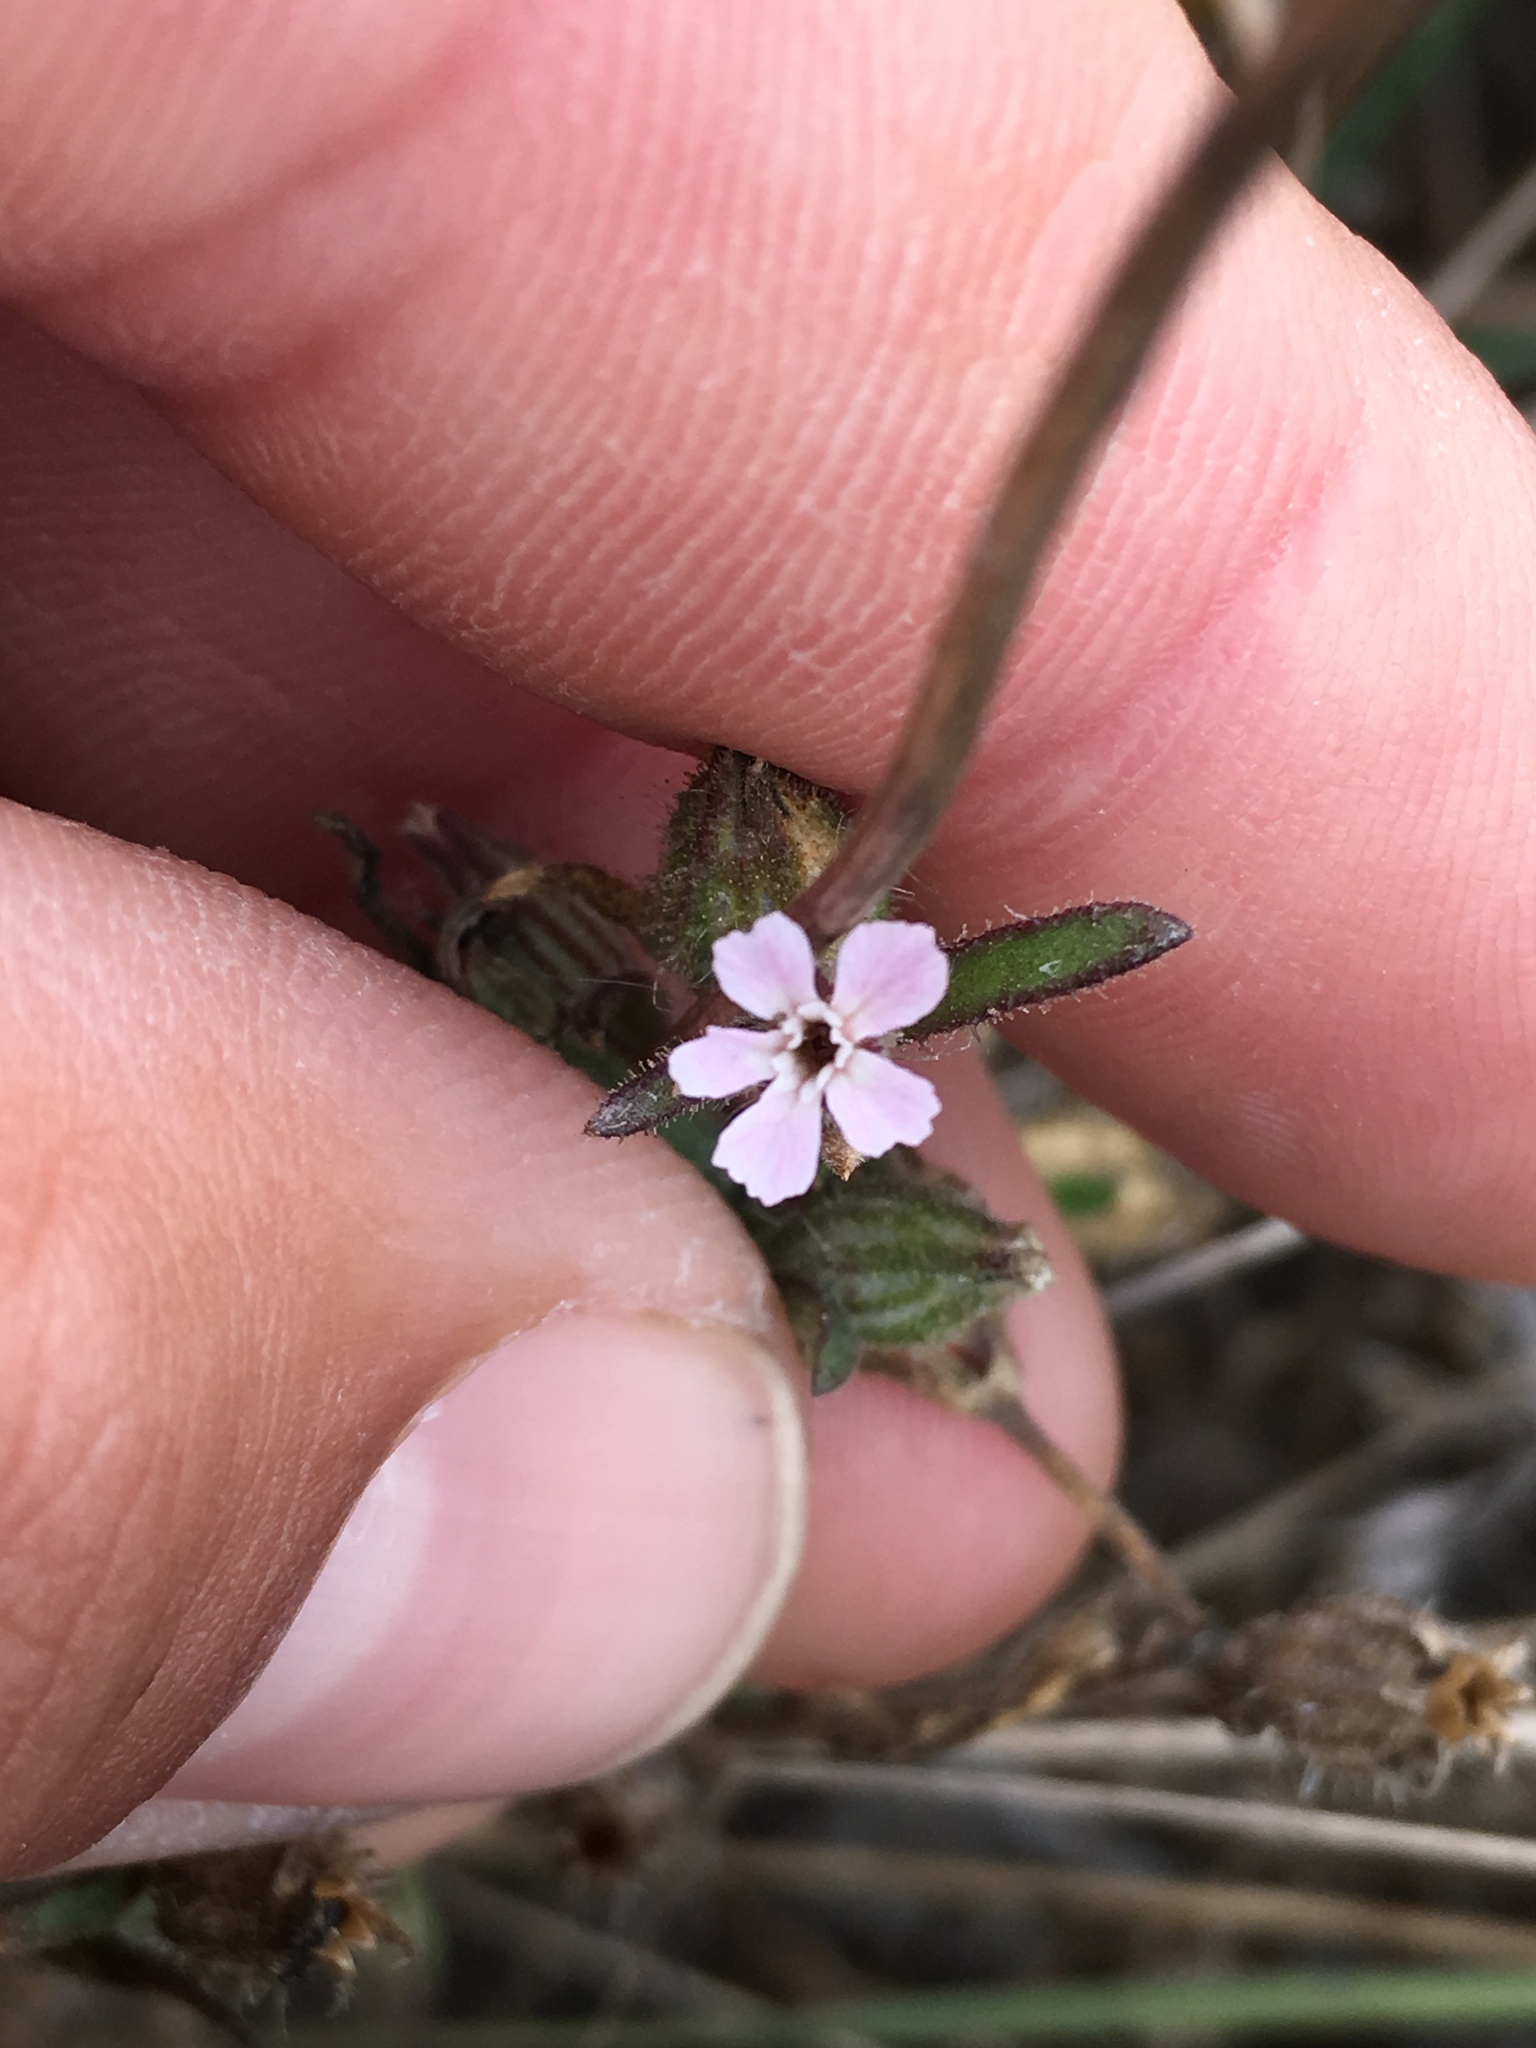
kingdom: Plantae
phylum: Tracheophyta
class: Magnoliopsida
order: Caryophyllales
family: Caryophyllaceae
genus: Silene
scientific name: Silene gallica
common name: Small-flowered catchfly
